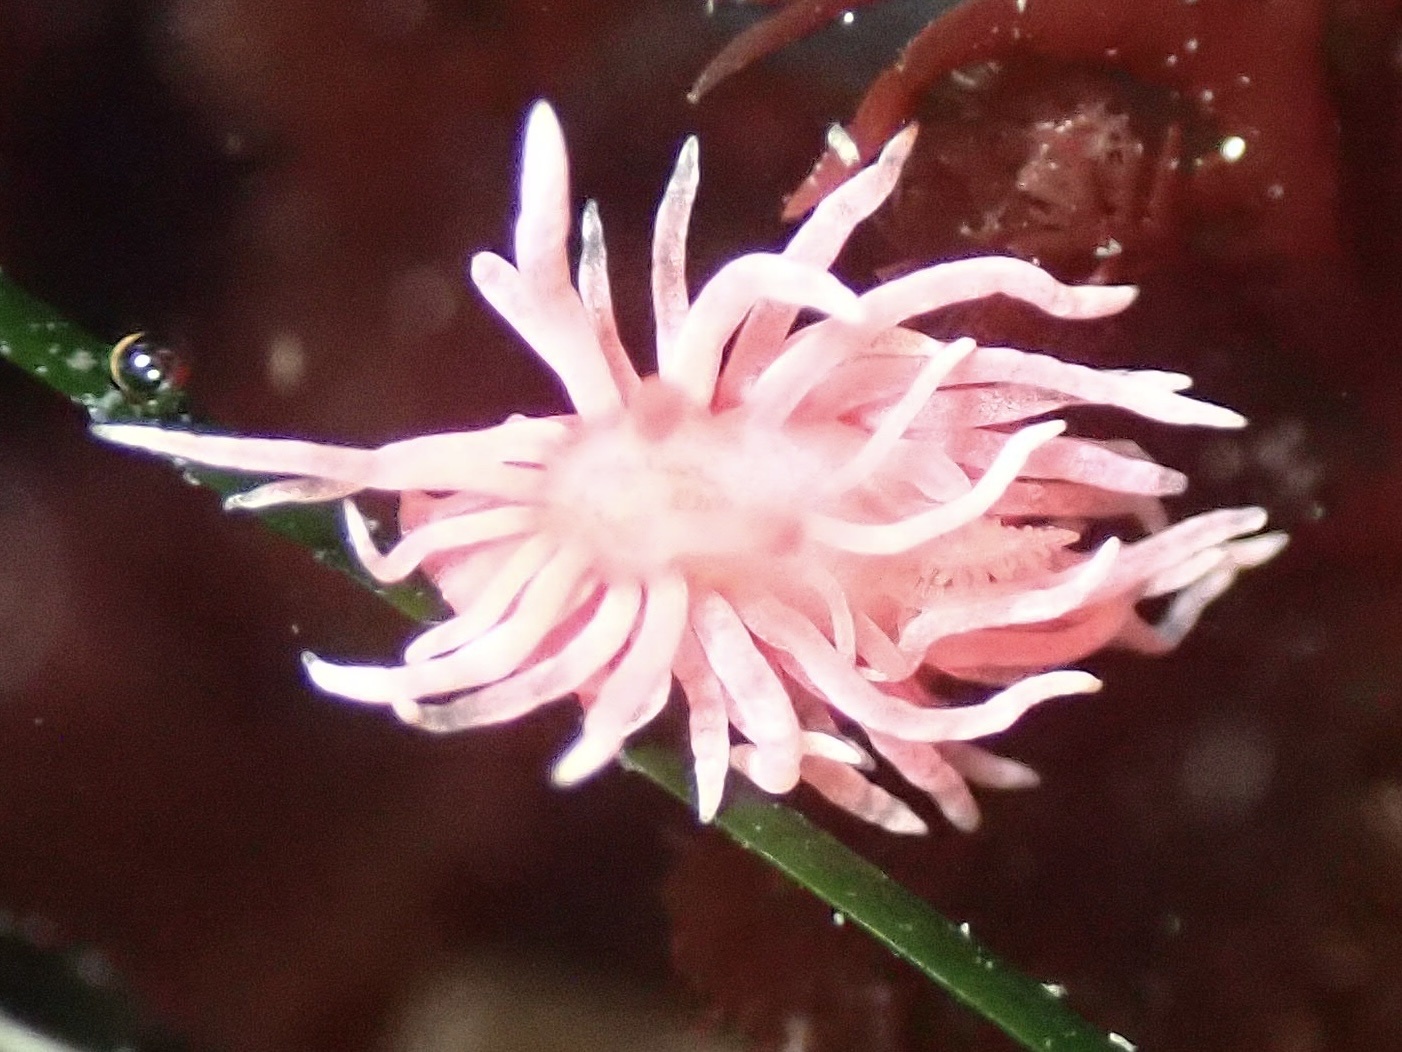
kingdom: Animalia
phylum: Mollusca
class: Gastropoda
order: Nudibranchia
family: Goniodorididae
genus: Okenia
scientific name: Okenia
